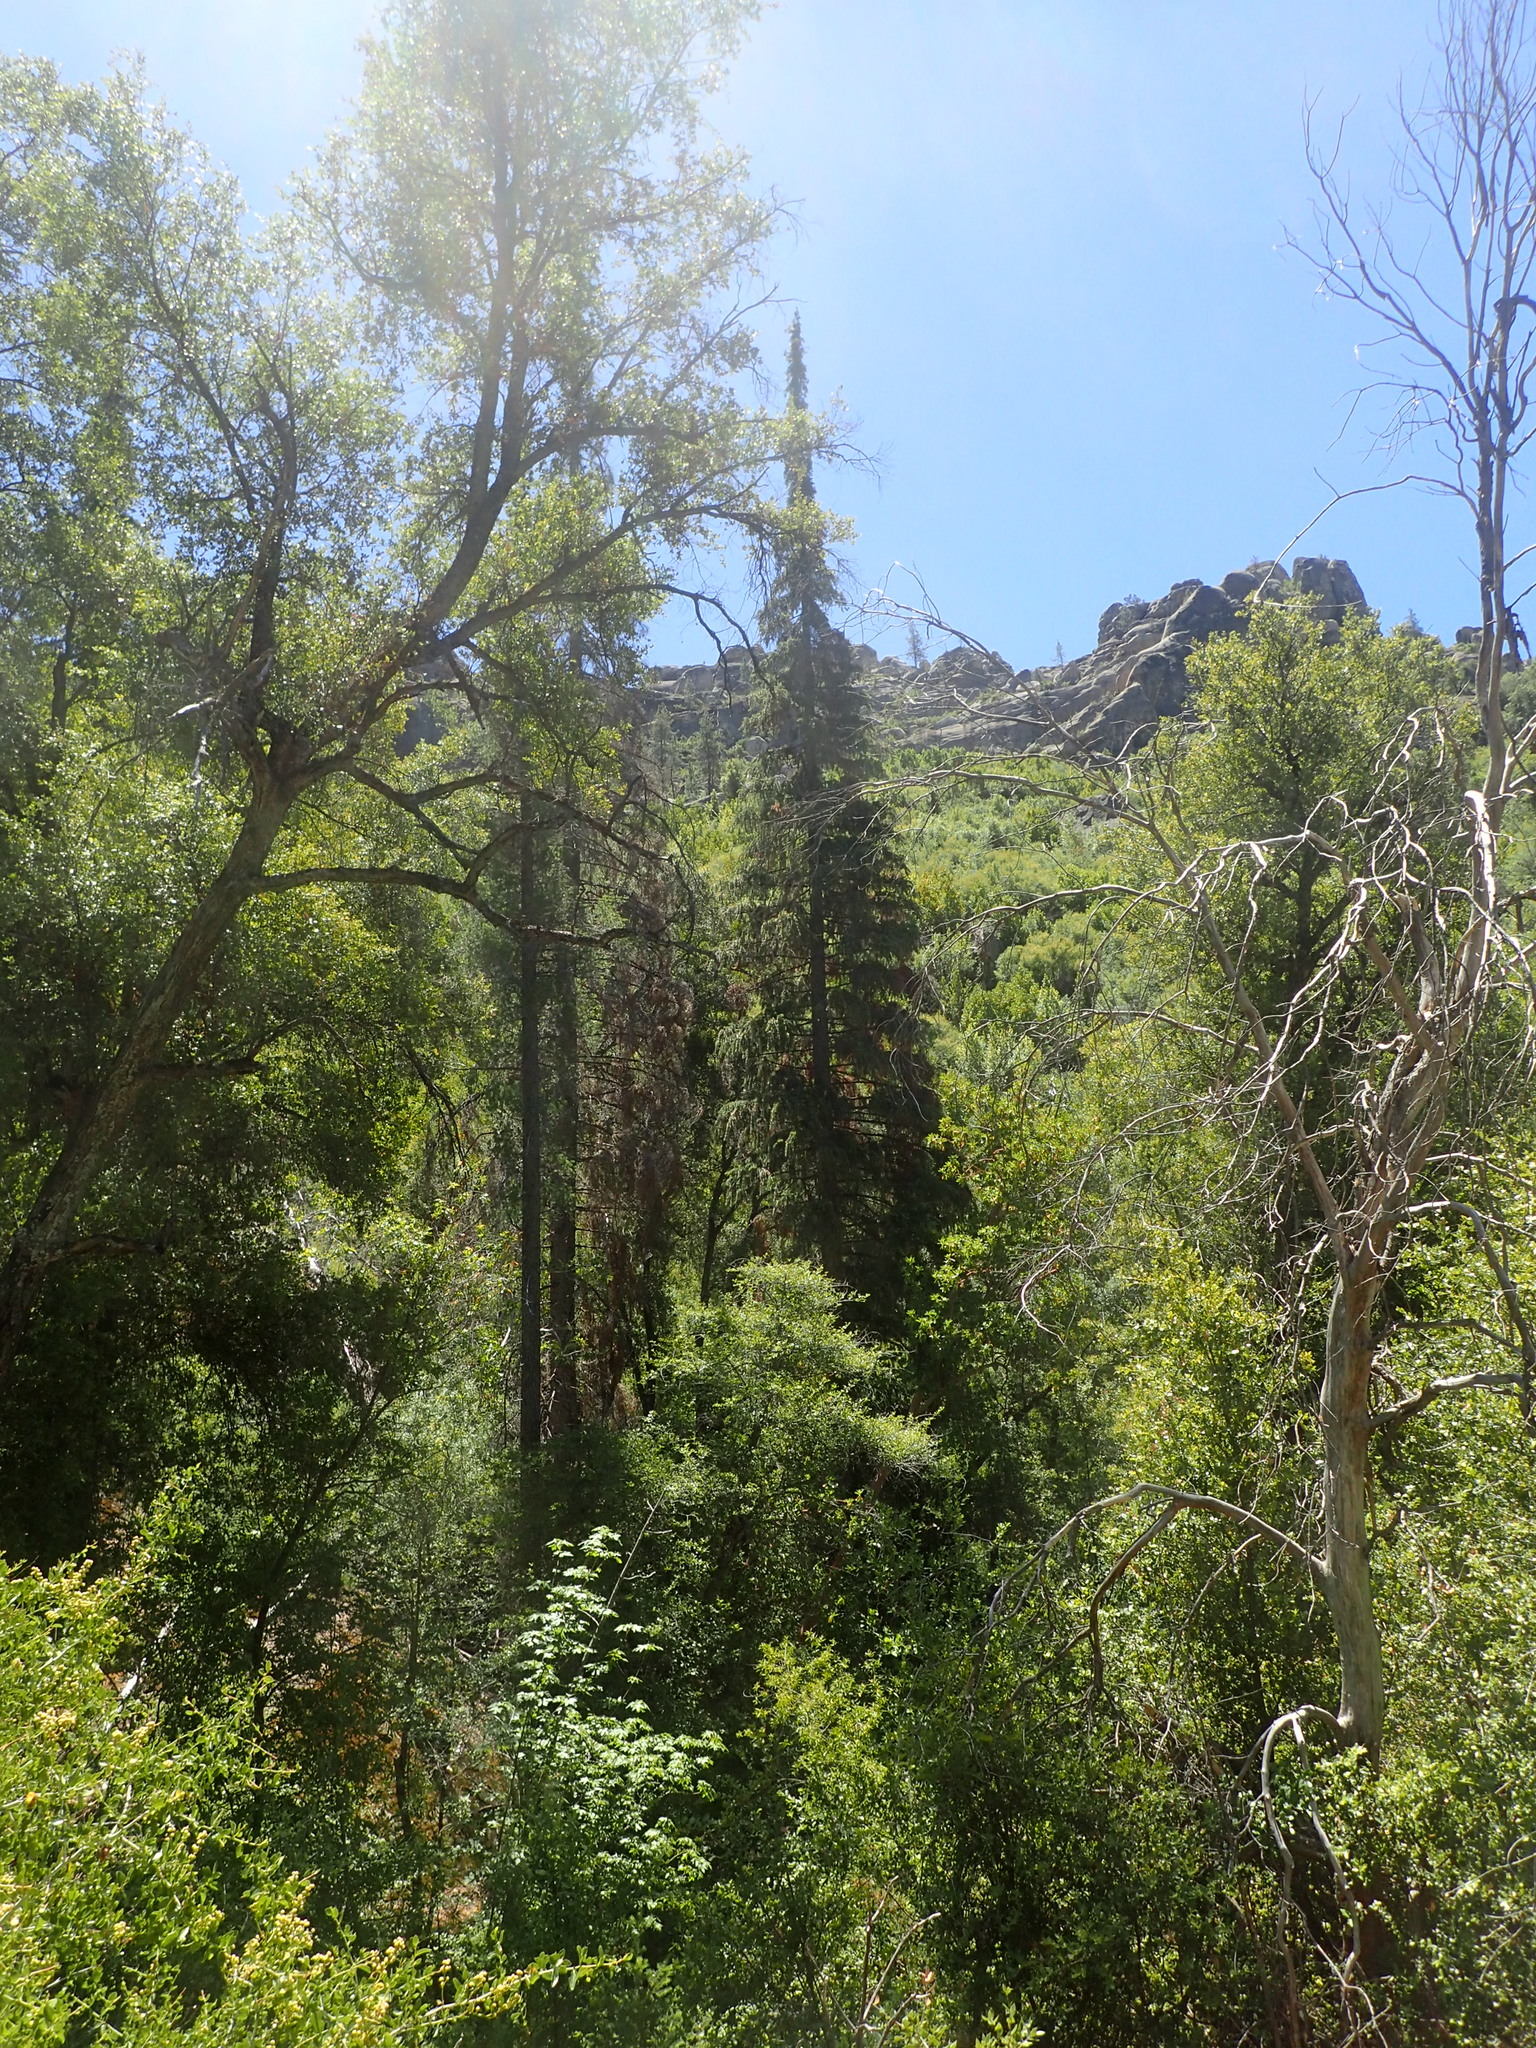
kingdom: Plantae
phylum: Tracheophyta
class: Pinopsida
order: Pinales
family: Pinaceae
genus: Abies
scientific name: Abies bracteata
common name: Bristlecone fir
